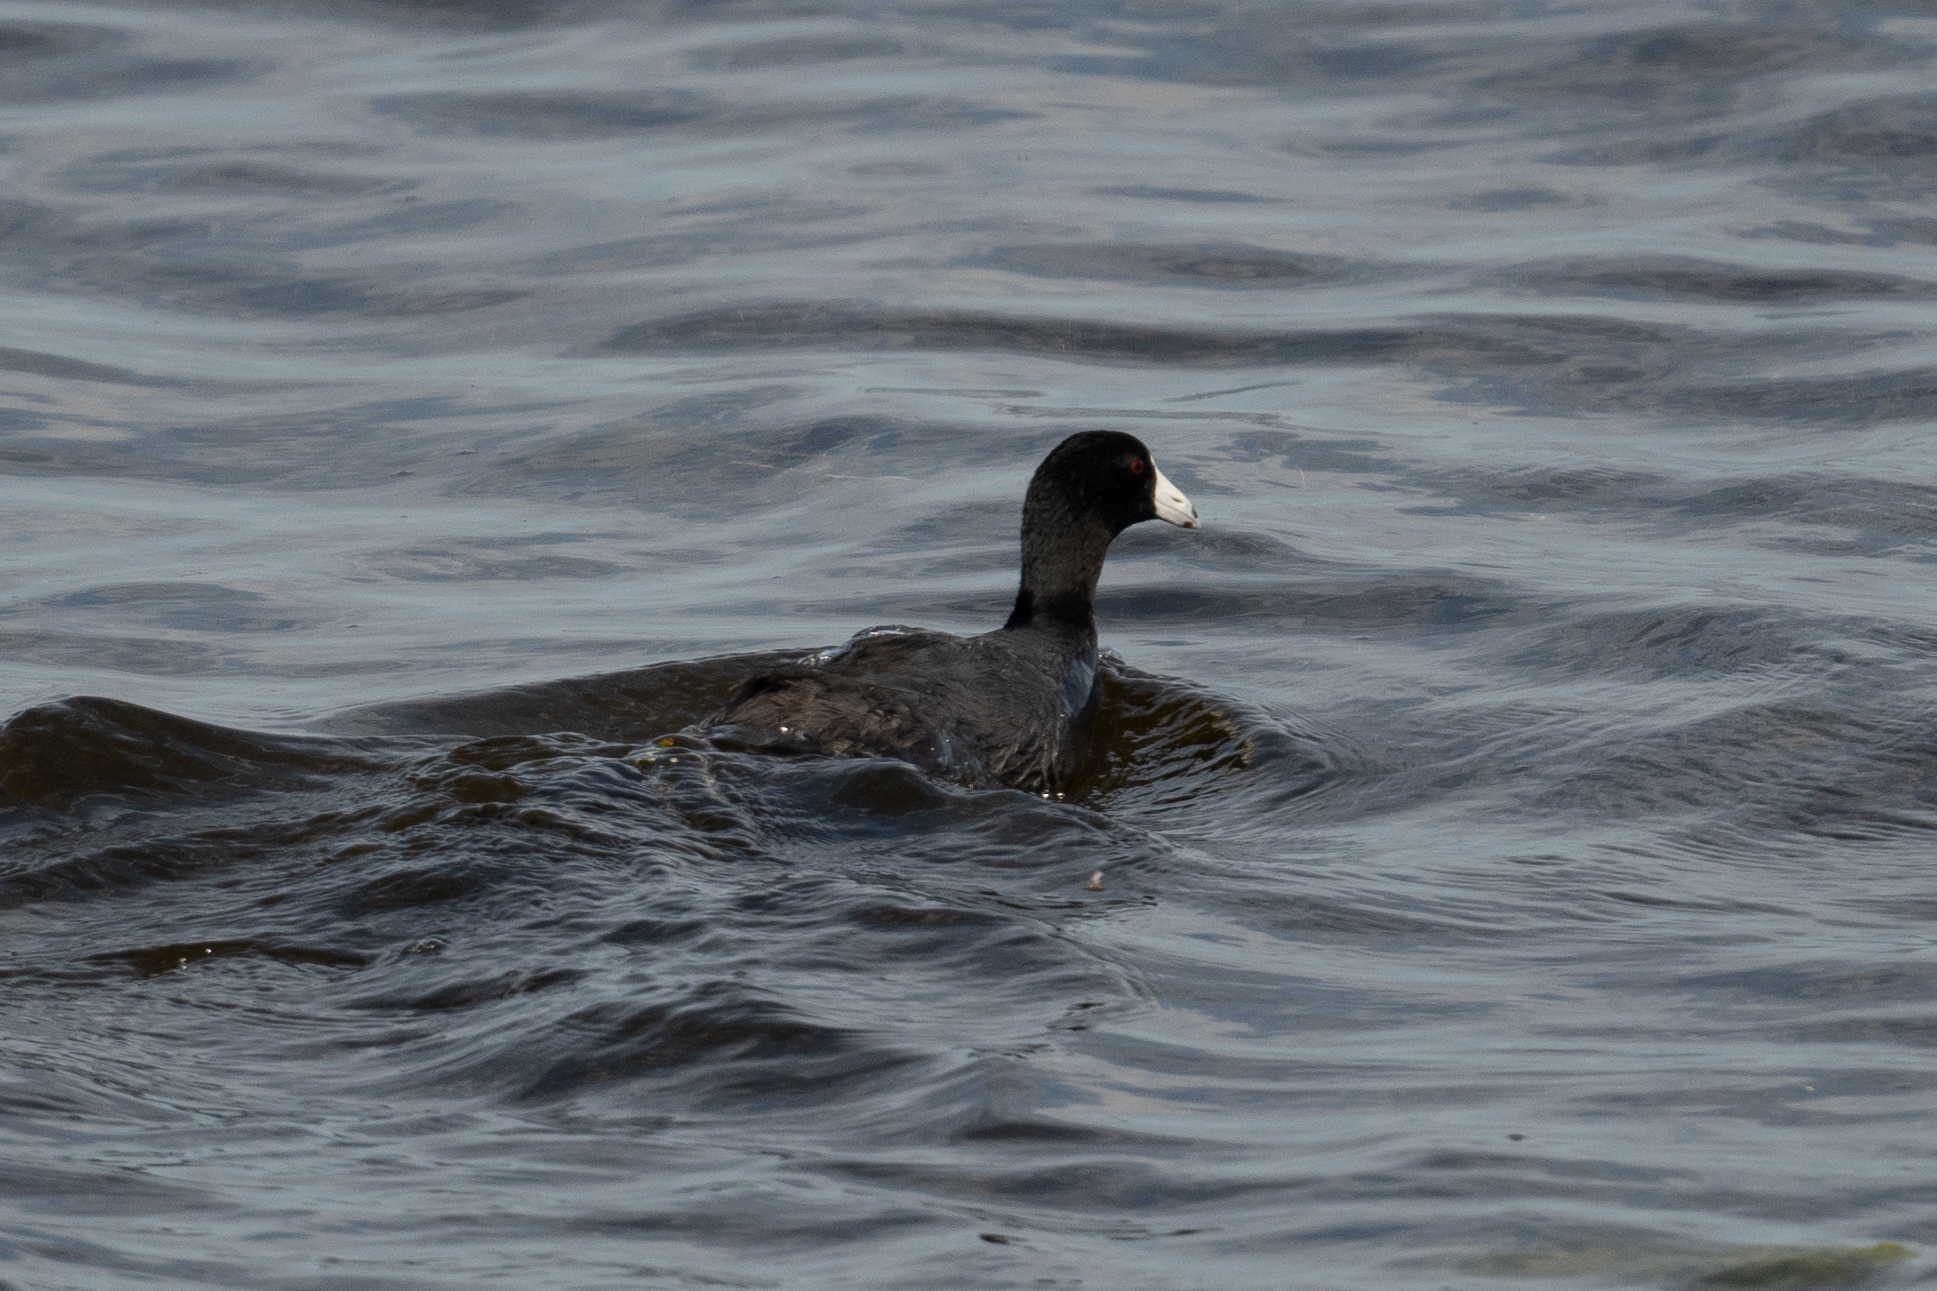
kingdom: Animalia
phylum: Chordata
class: Aves
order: Gruiformes
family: Rallidae
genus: Fulica
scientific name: Fulica americana
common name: American coot
